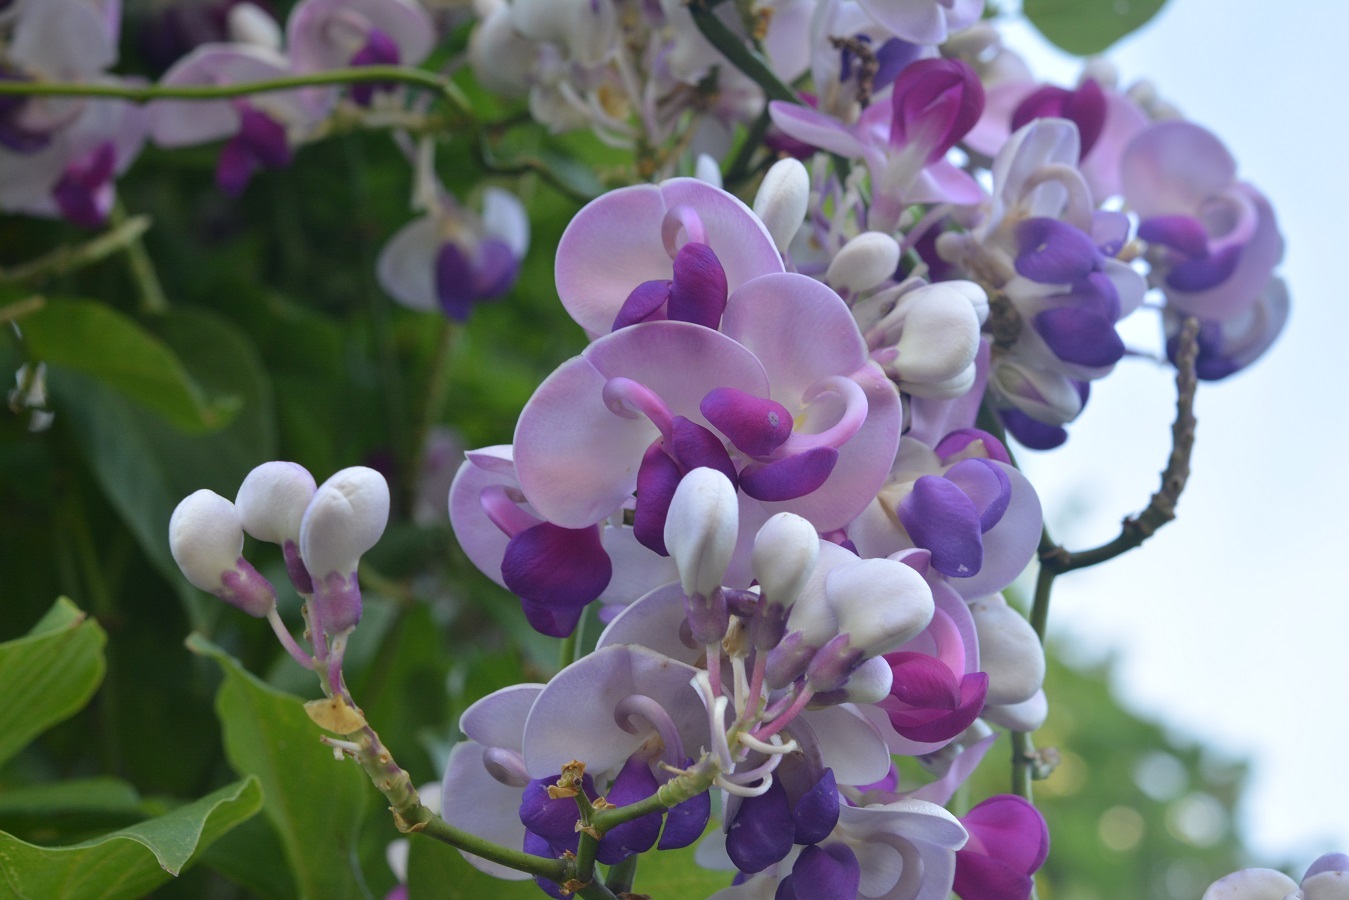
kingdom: Plantae
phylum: Tracheophyta
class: Magnoliopsida
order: Fabales
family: Fabaceae
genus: Ramirezella
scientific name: Ramirezella penduliflora
